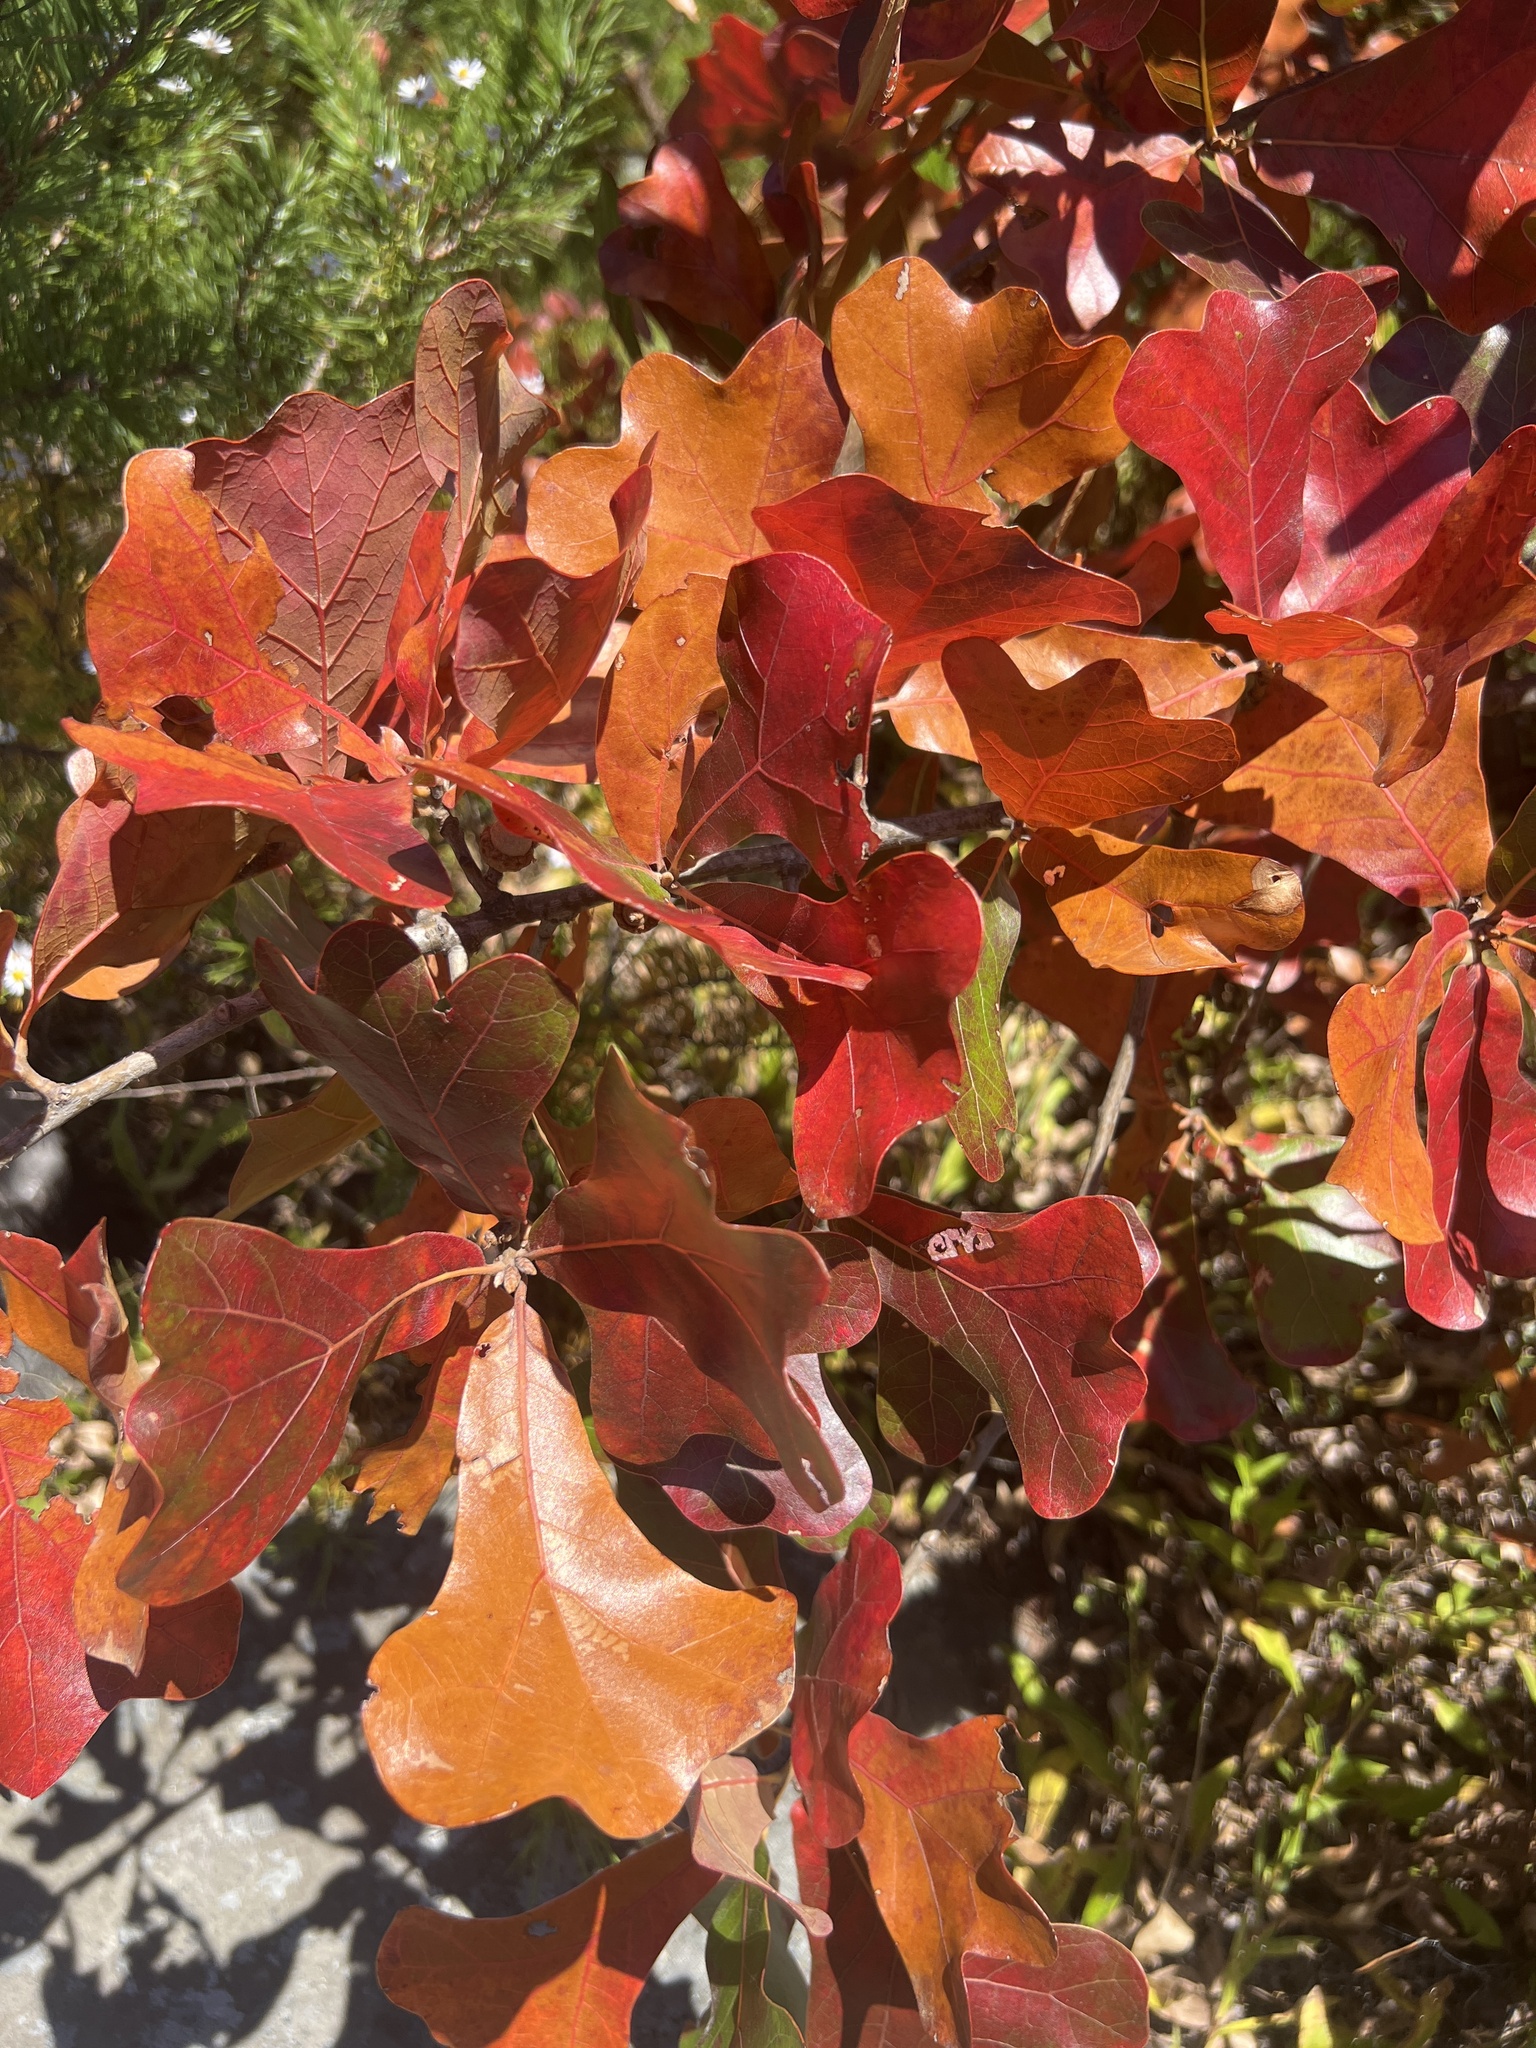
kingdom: Plantae
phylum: Tracheophyta
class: Magnoliopsida
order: Fagales
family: Fagaceae
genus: Quercus
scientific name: Quercus marilandica
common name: Blackjack oak
